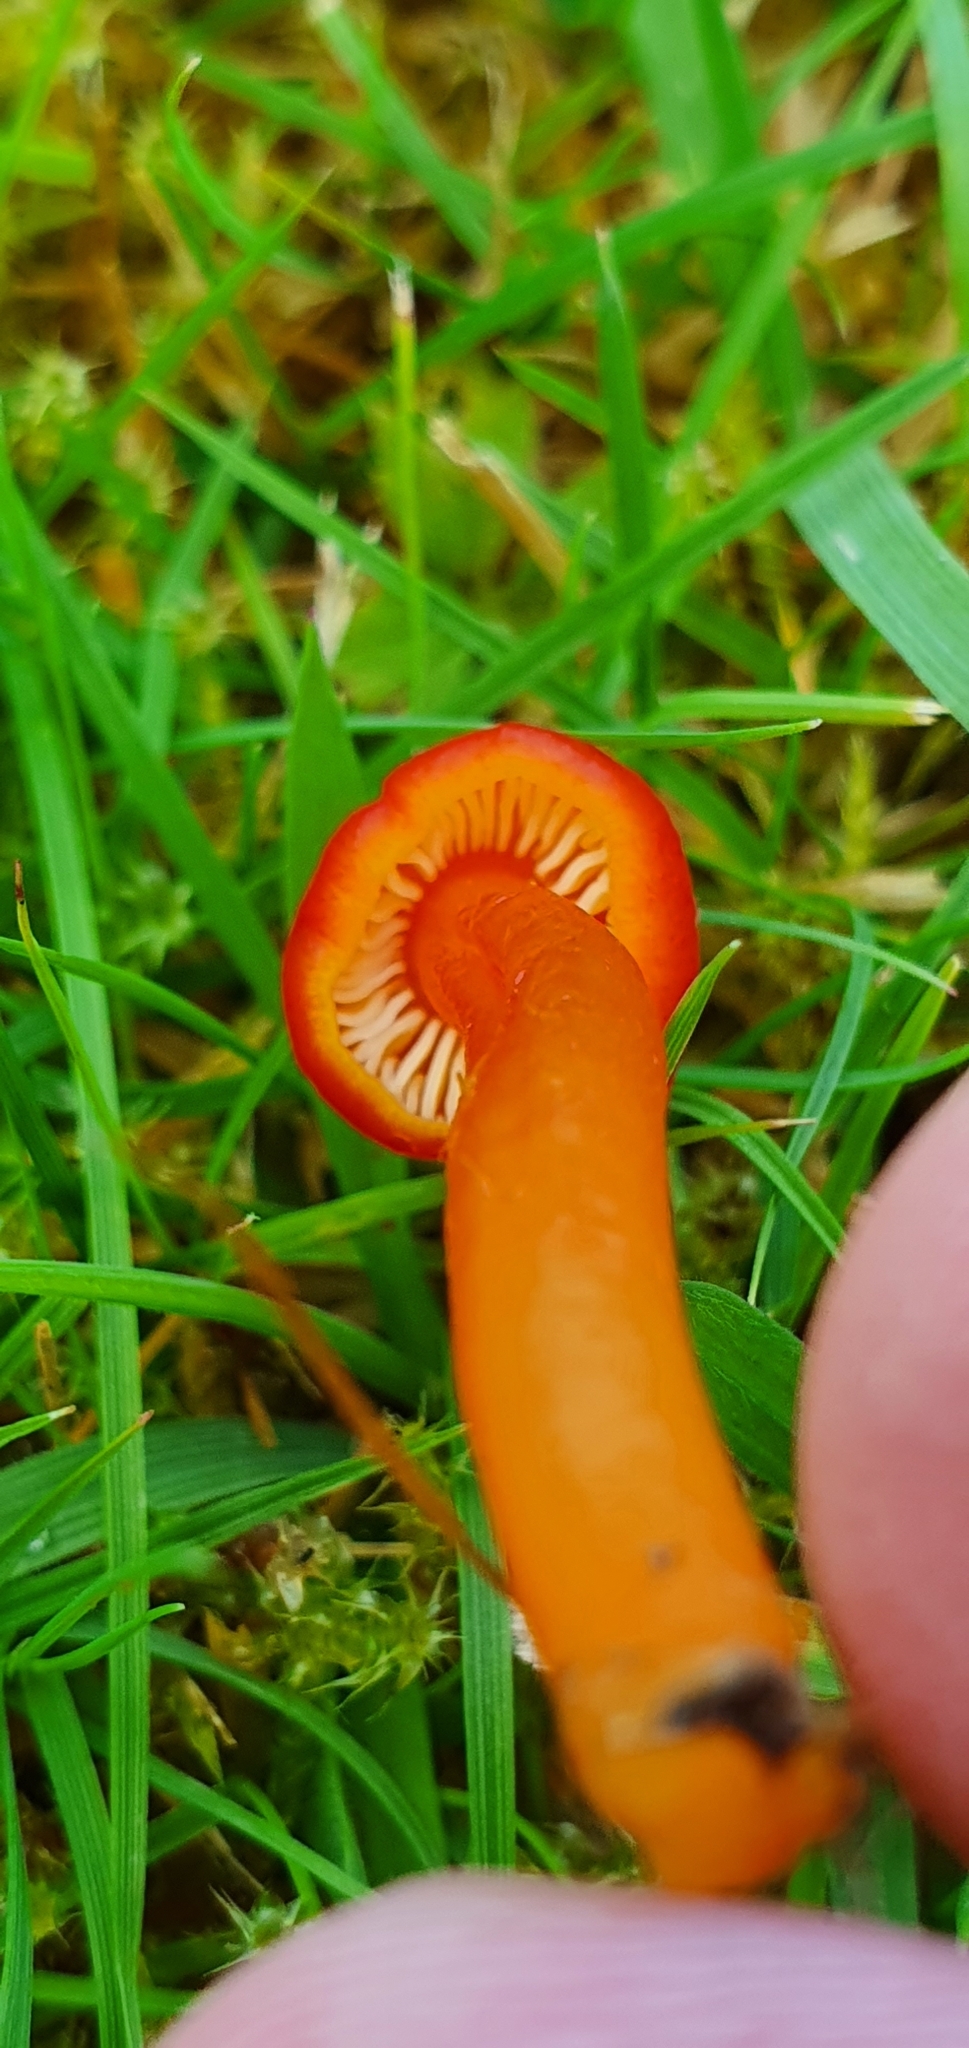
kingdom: Fungi
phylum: Basidiomycota
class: Agaricomycetes
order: Agaricales
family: Hygrophoraceae
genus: Hygrocybe
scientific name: Hygrocybe reidii
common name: Honey waxcap
